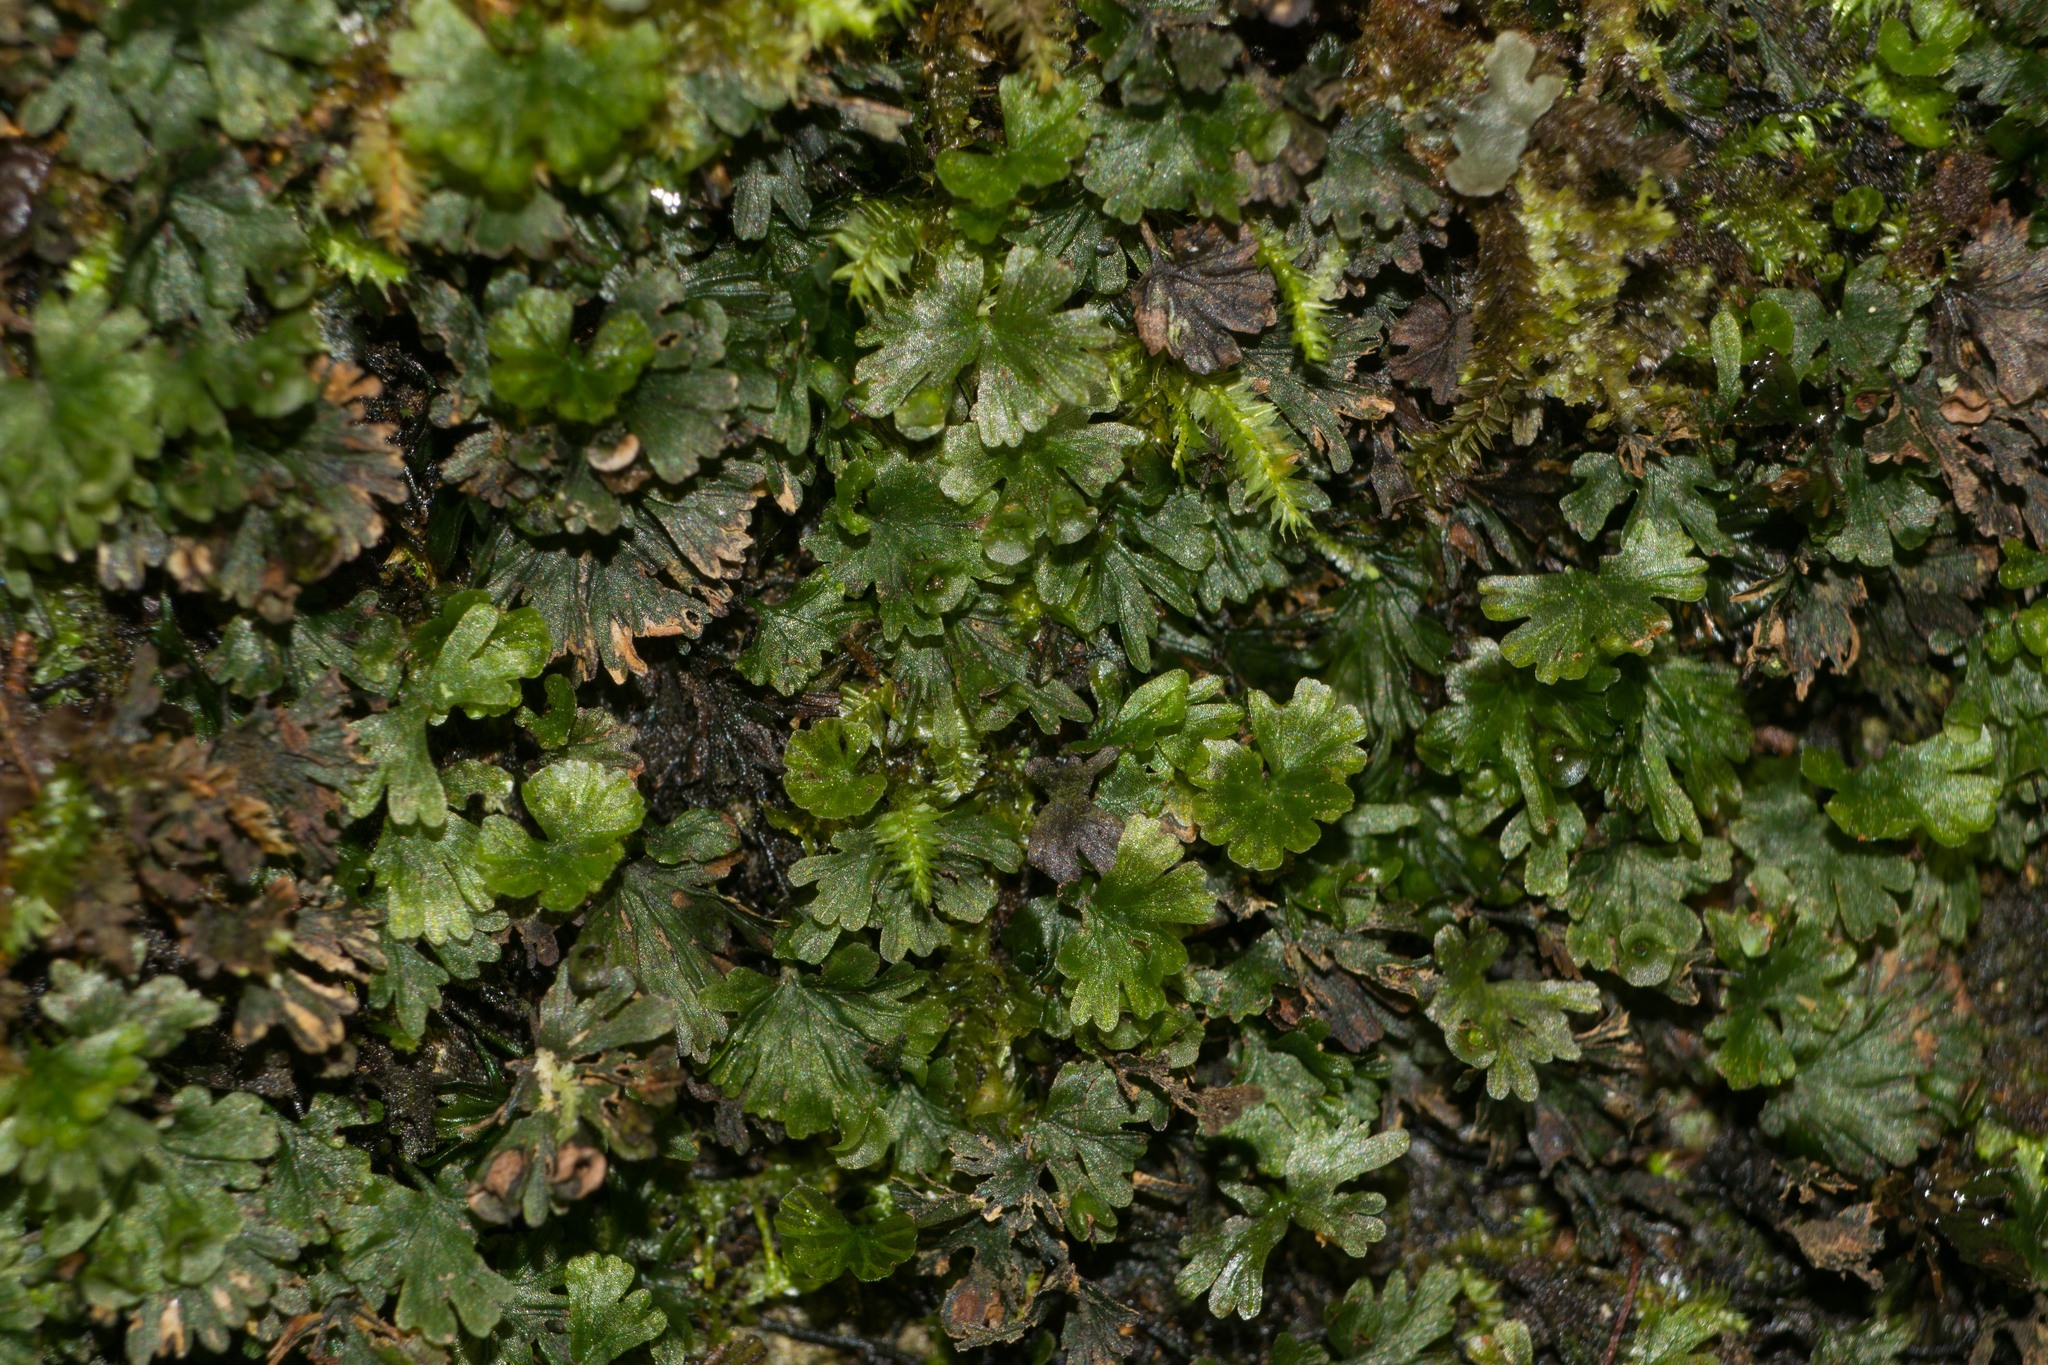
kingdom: Plantae
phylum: Tracheophyta
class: Polypodiopsida
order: Hymenophyllales
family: Hymenophyllaceae
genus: Crepidomanes
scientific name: Crepidomanes parvulum
